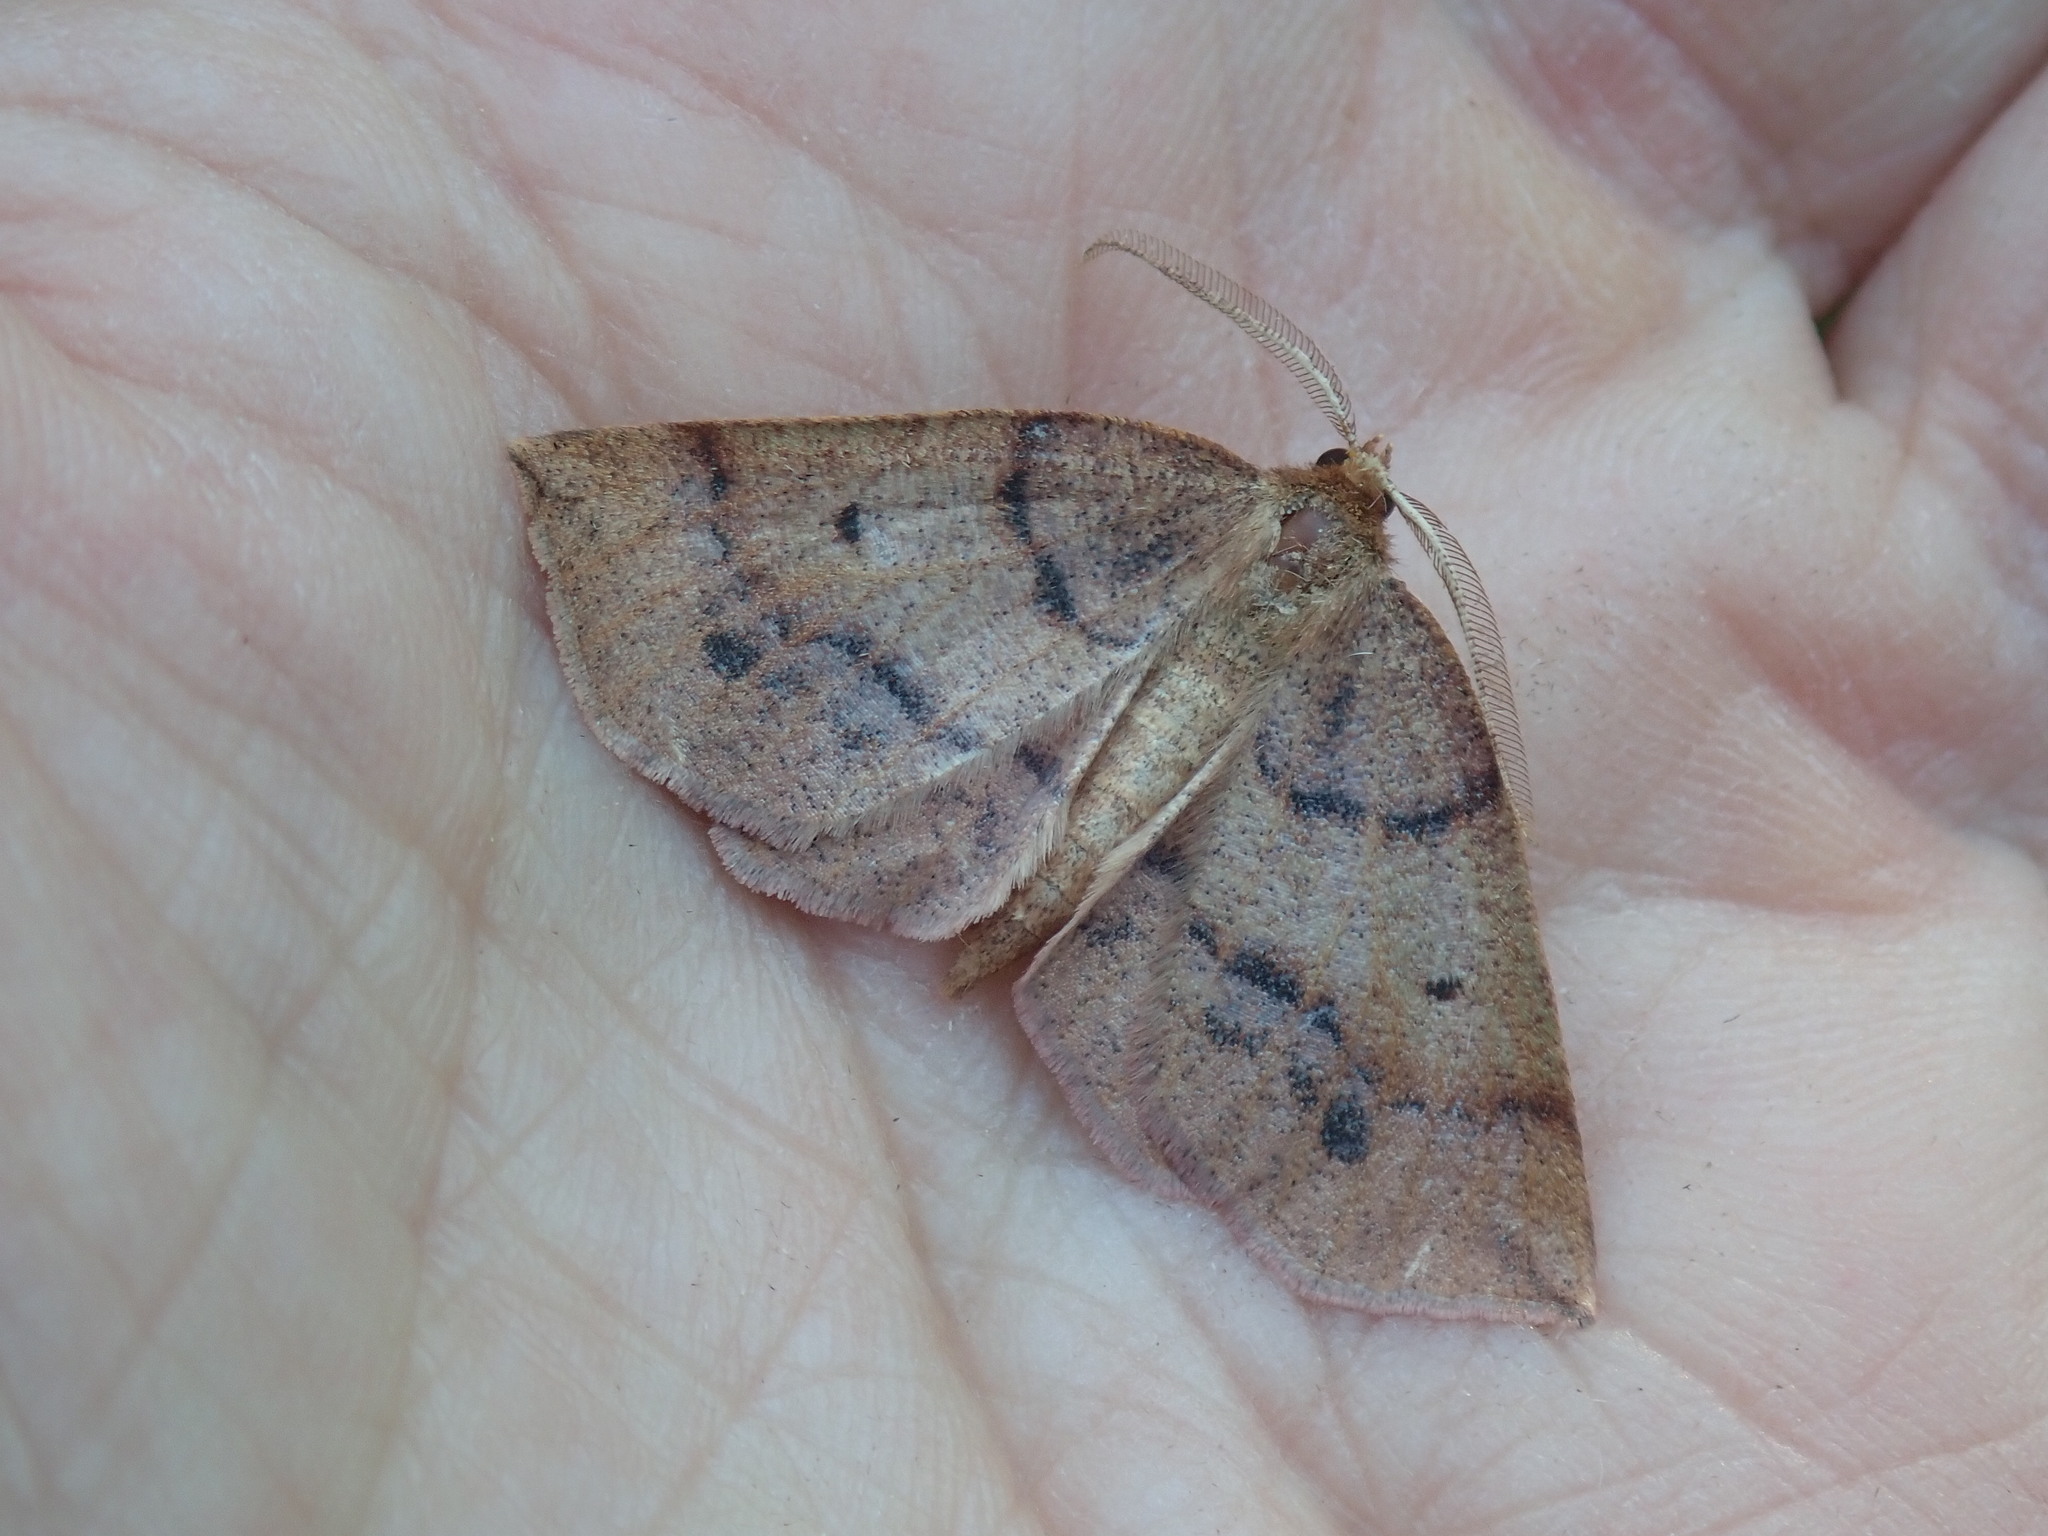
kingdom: Animalia
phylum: Arthropoda
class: Insecta
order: Lepidoptera
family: Geometridae
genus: Metarranthis
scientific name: Metarranthis duaria
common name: Ruddy metarranthis moth
